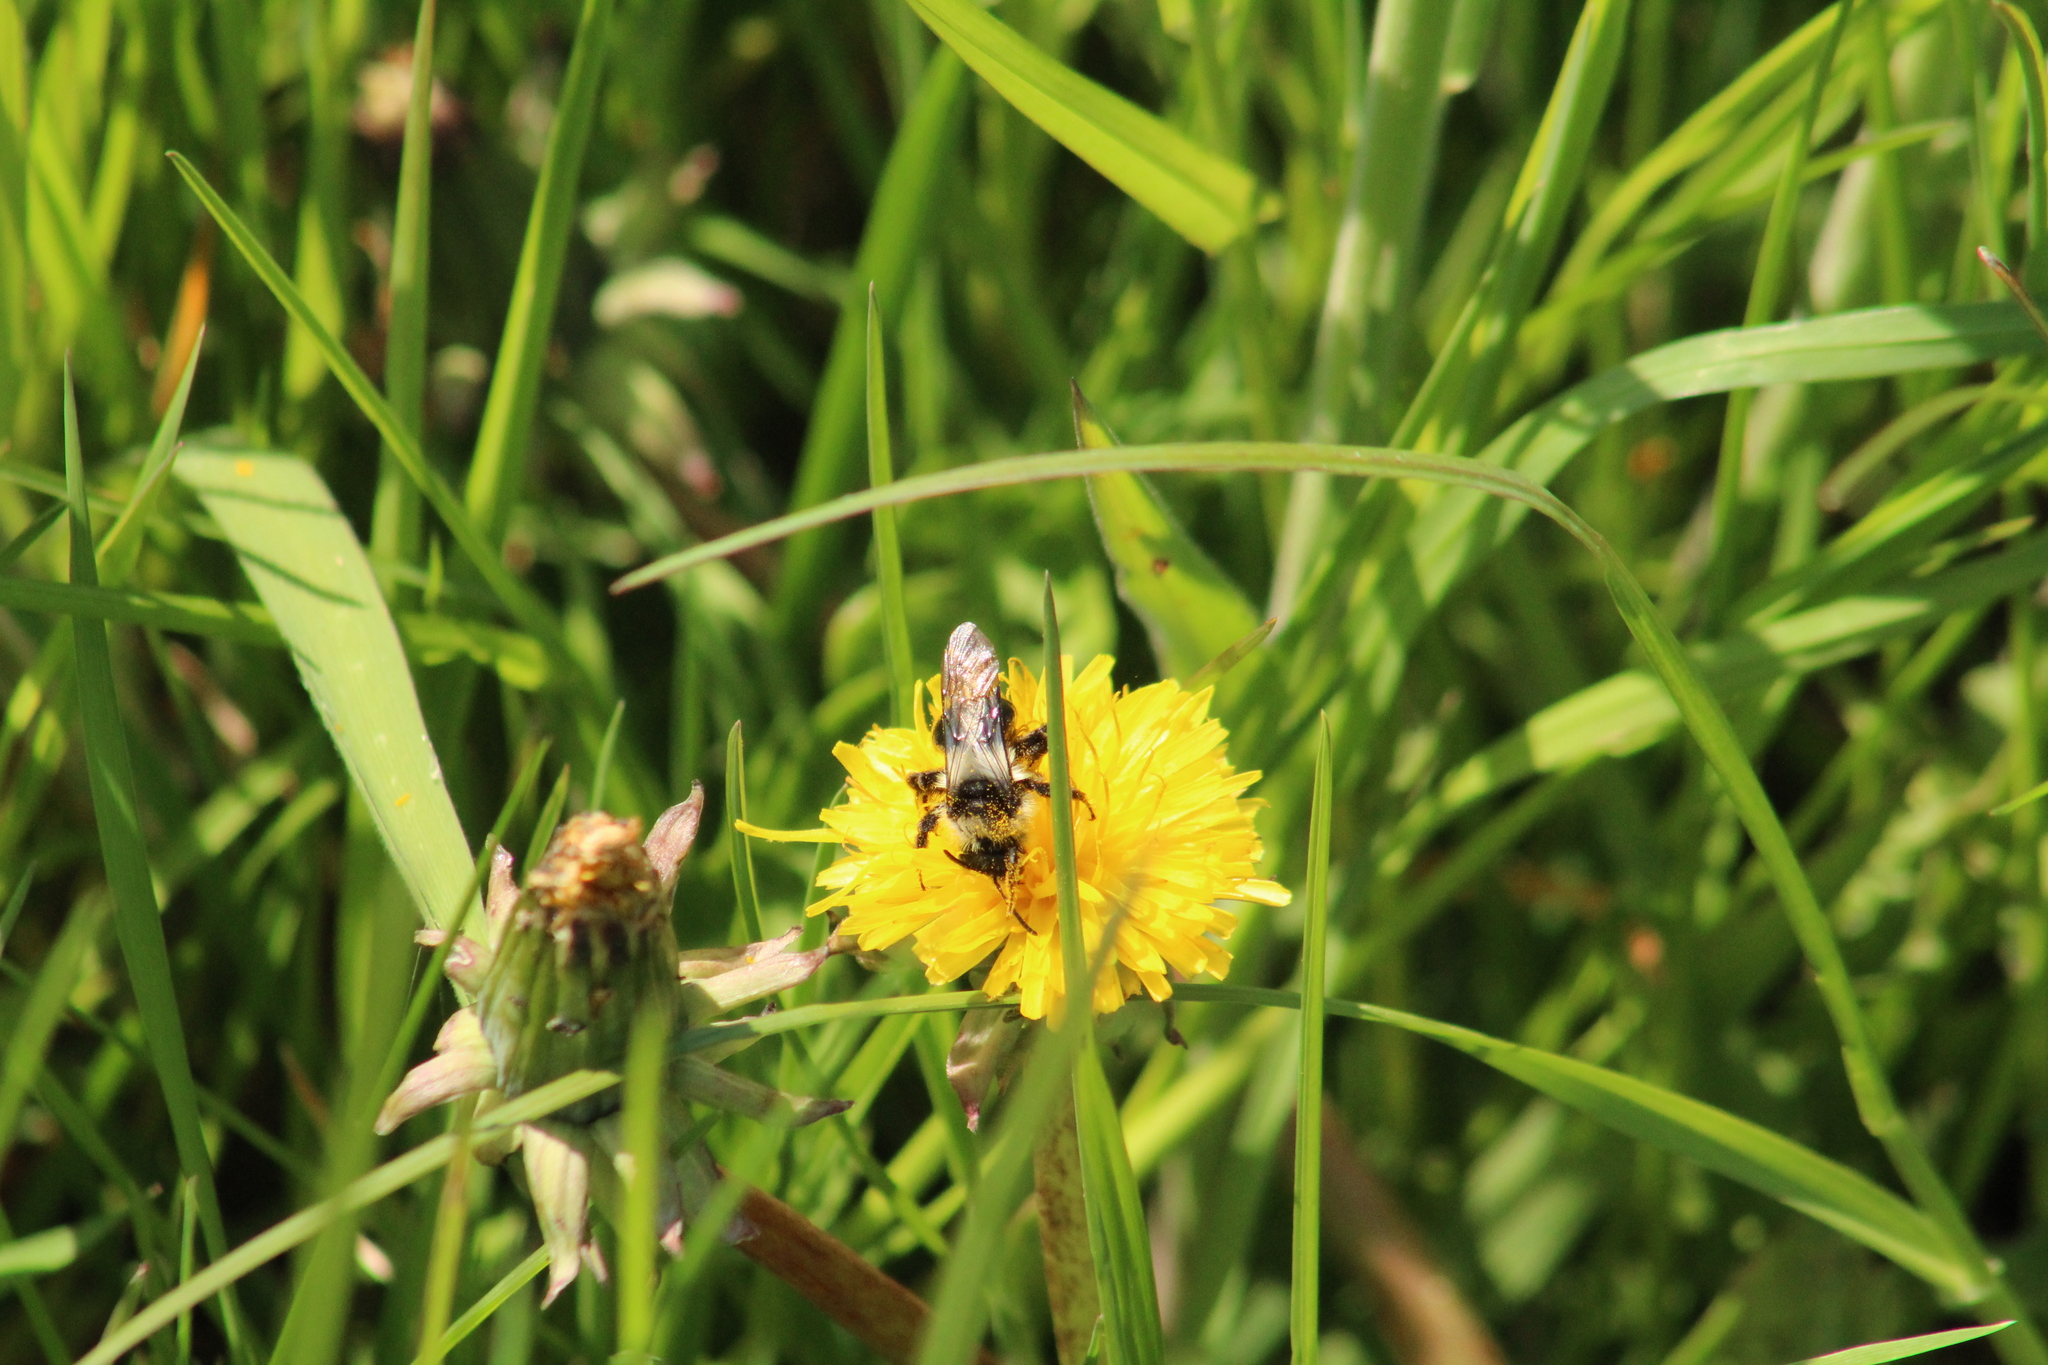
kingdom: Animalia
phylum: Arthropoda
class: Insecta
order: Hymenoptera
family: Andrenidae
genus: Andrena
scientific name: Andrena cineraria
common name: Ashy mining bee
